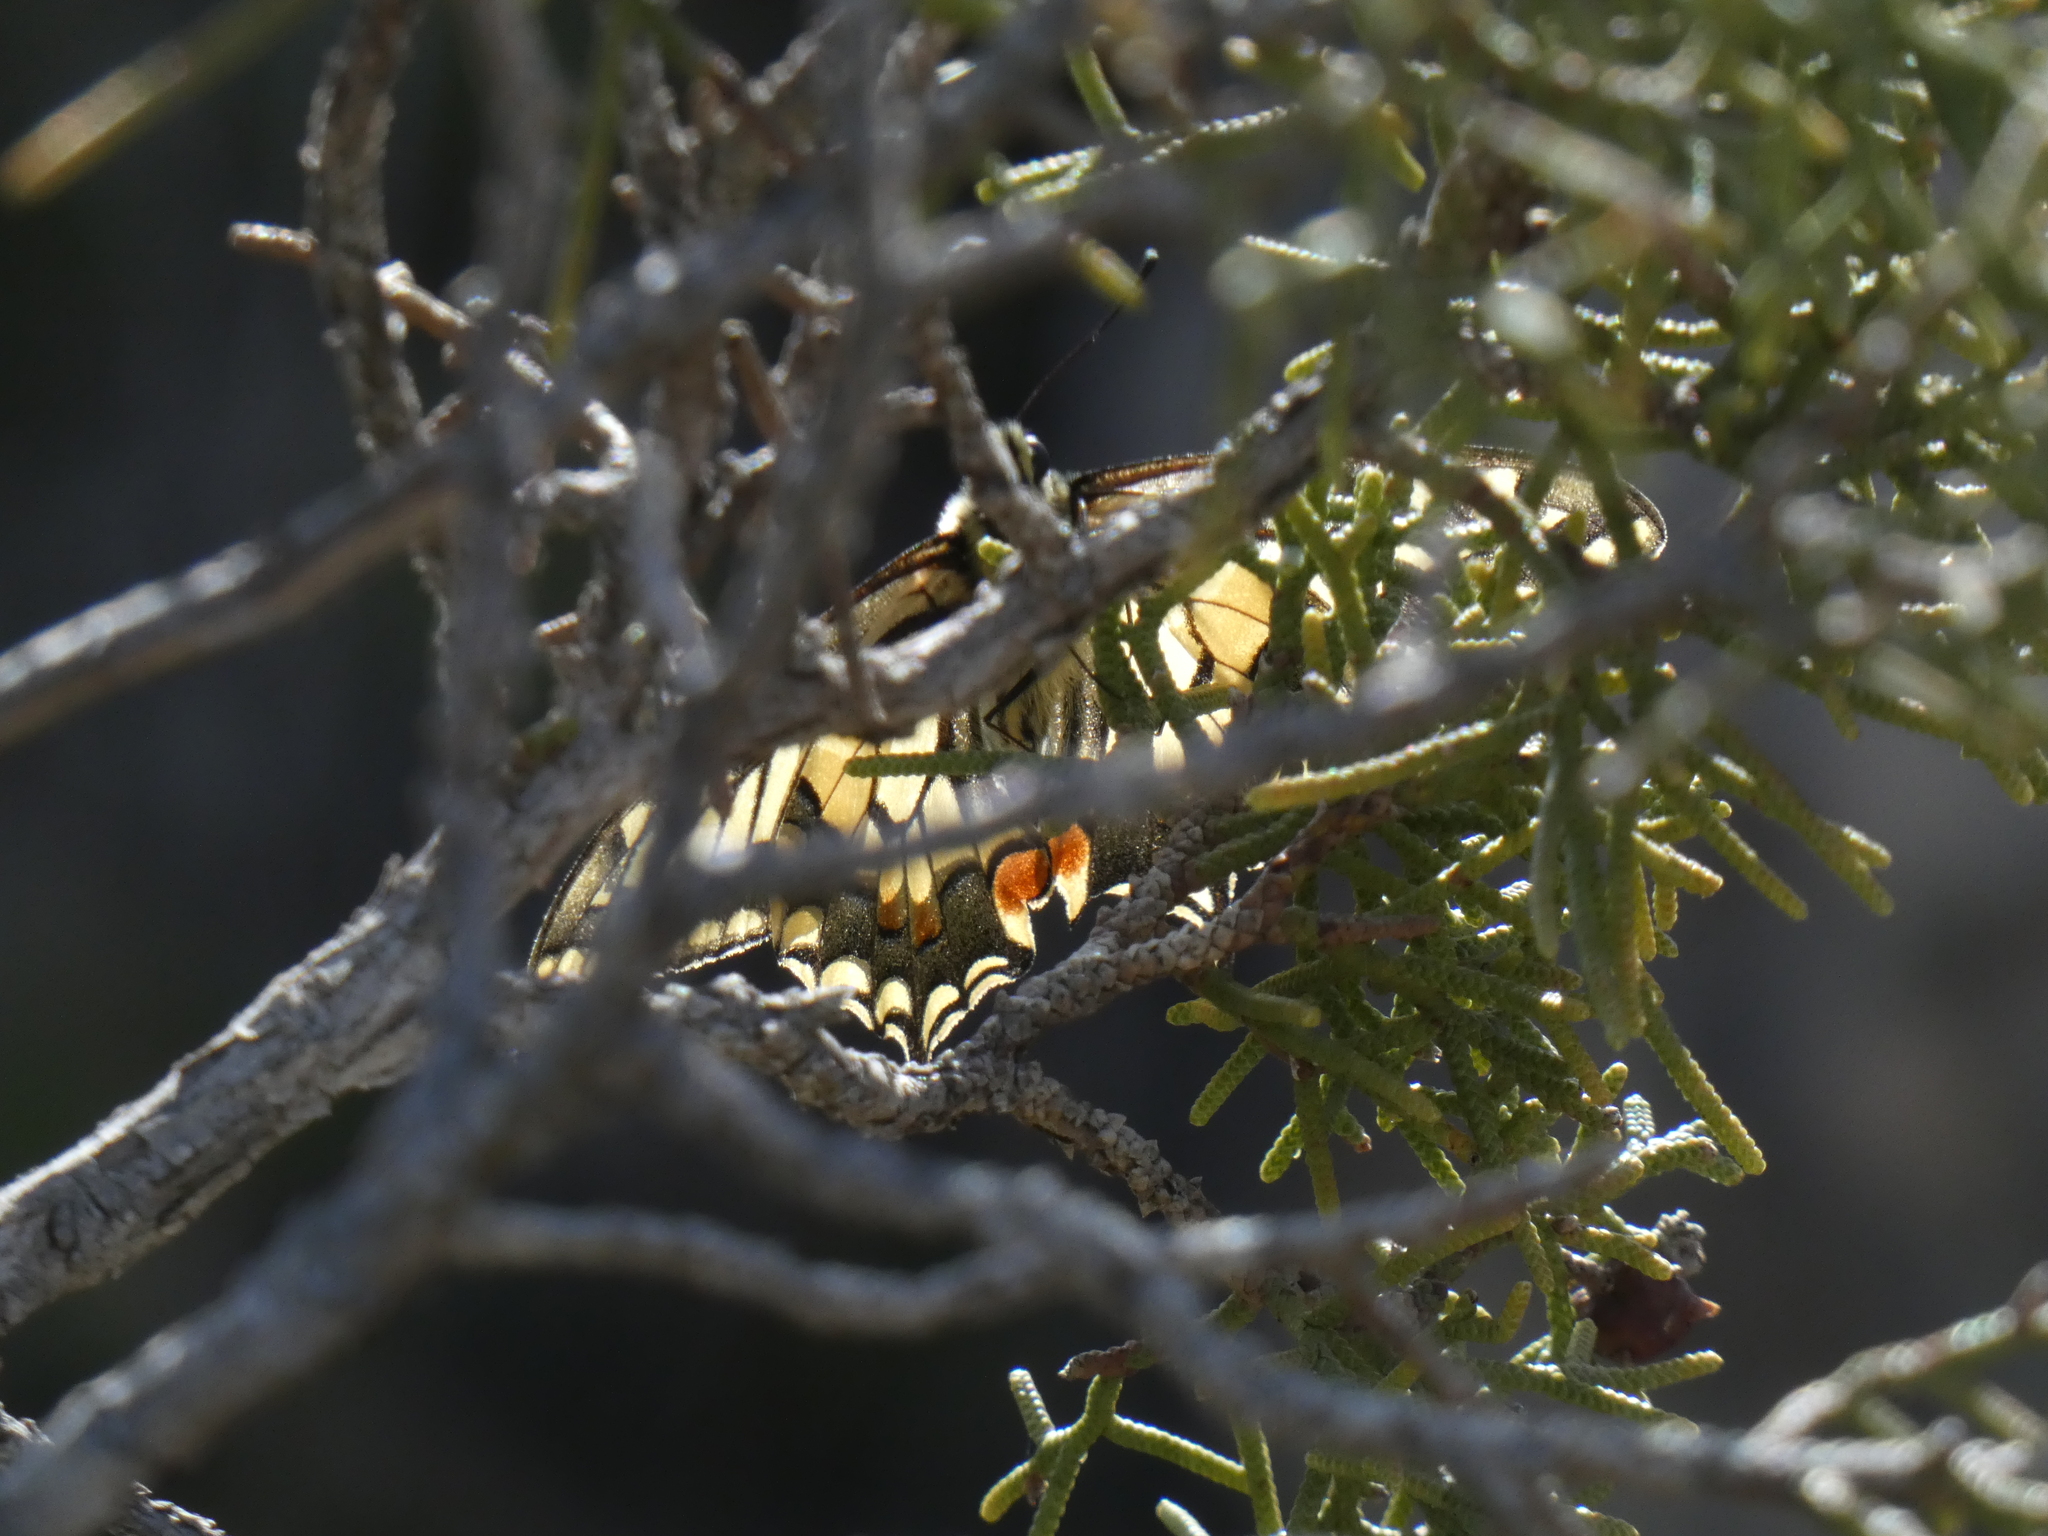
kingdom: Animalia
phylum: Arthropoda
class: Insecta
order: Lepidoptera
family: Papilionidae
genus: Papilio
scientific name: Papilio machaon
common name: Swallowtail
